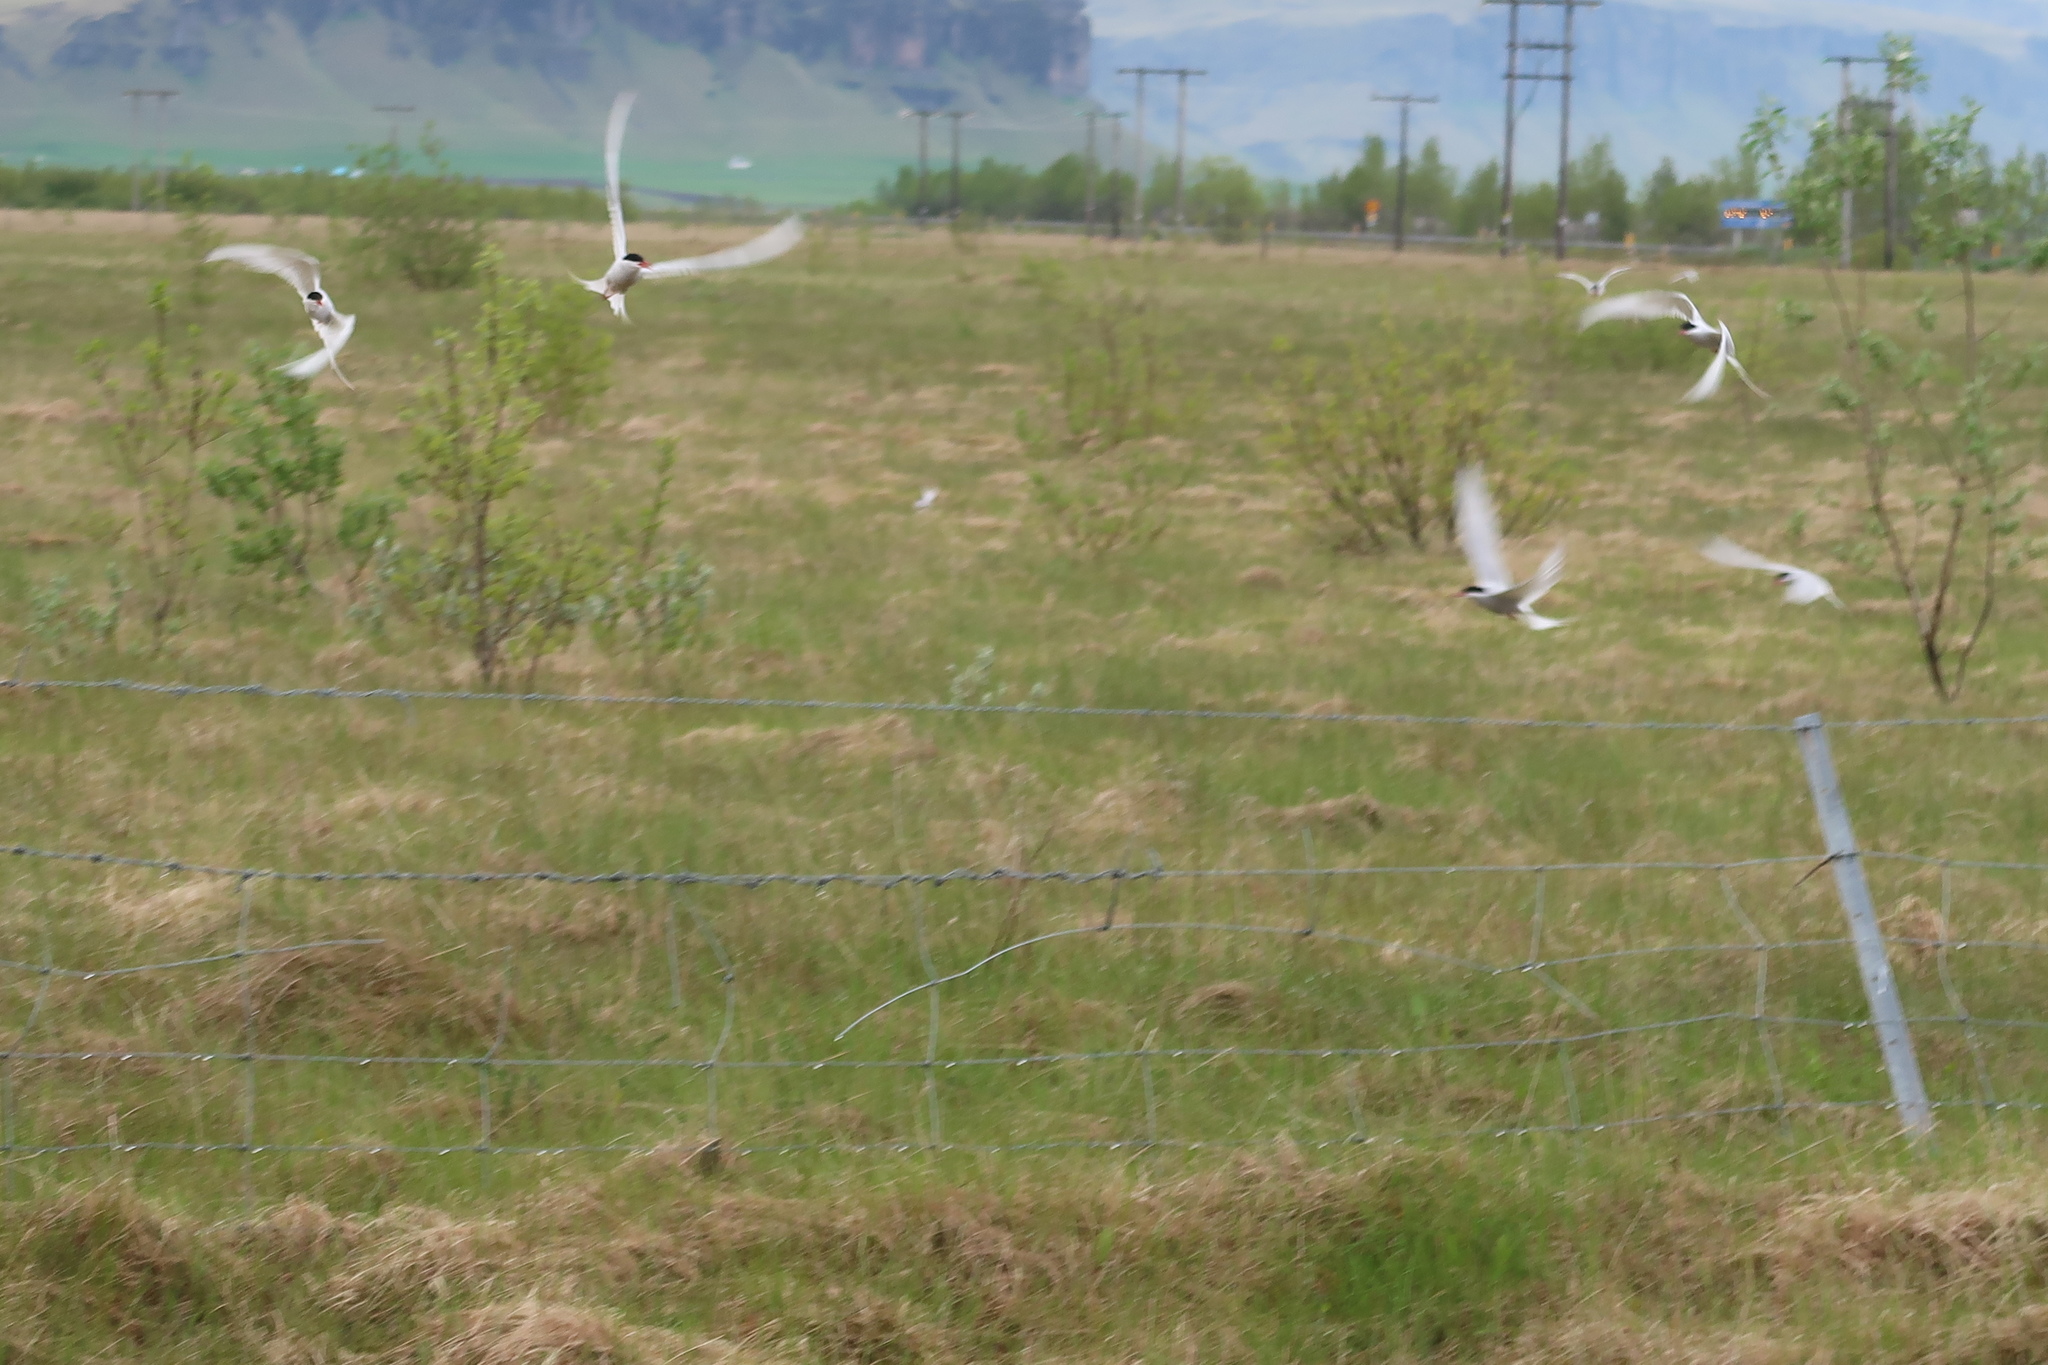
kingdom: Animalia
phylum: Chordata
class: Aves
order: Charadriiformes
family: Laridae
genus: Sterna
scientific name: Sterna paradisaea
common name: Arctic tern
